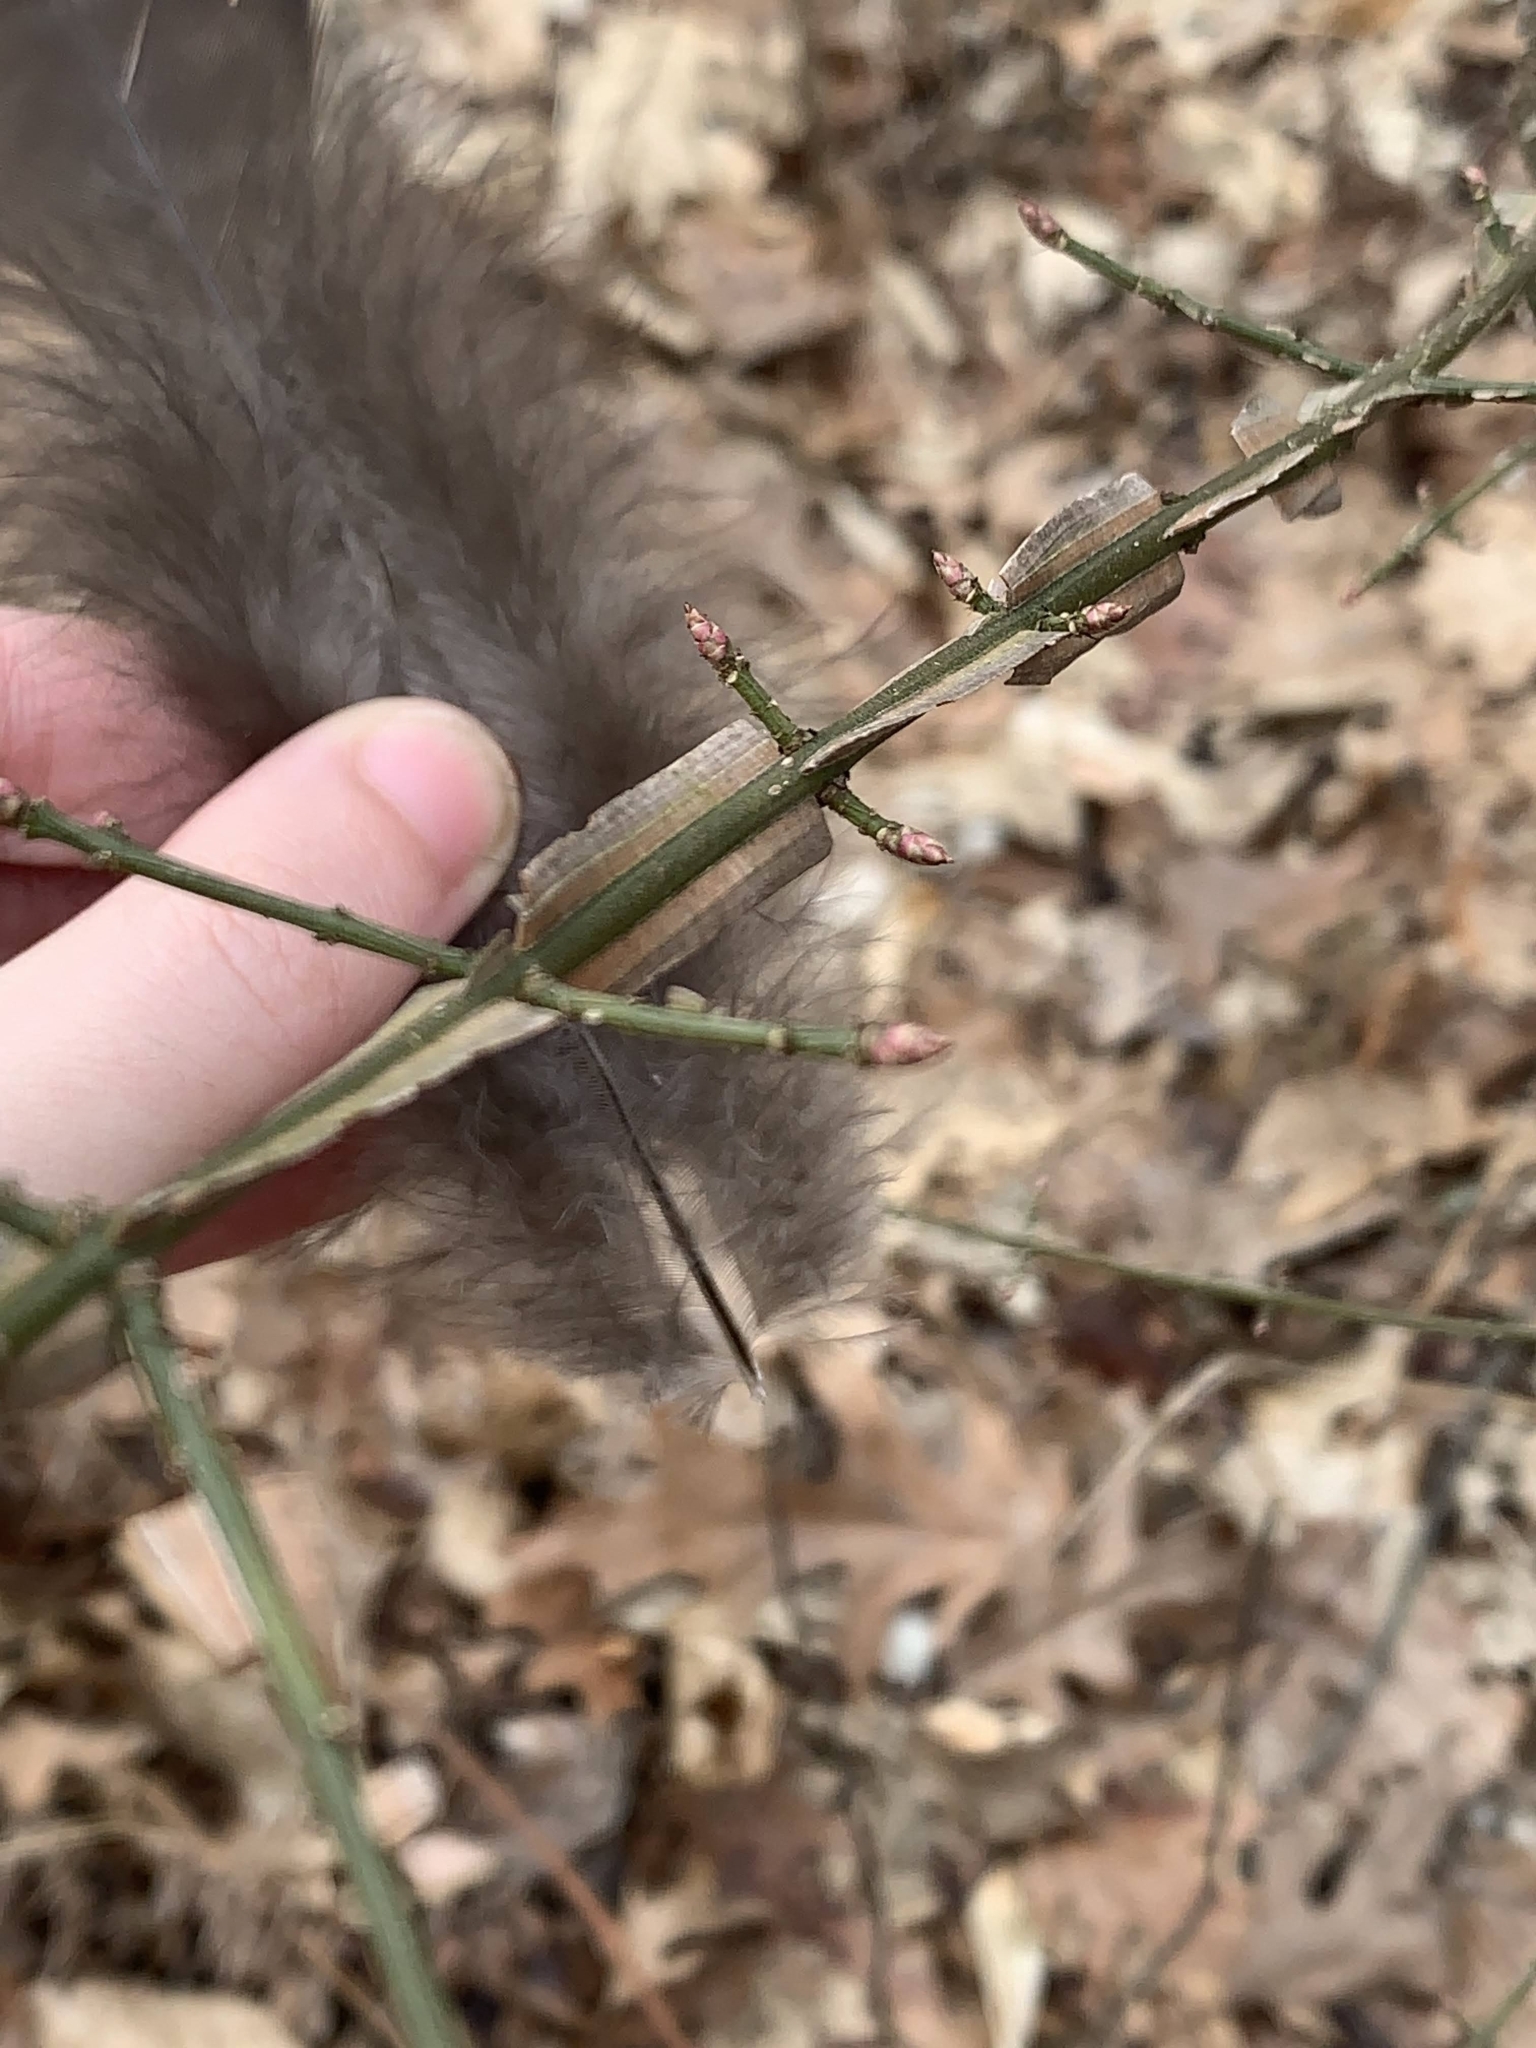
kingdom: Plantae
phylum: Tracheophyta
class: Magnoliopsida
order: Celastrales
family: Celastraceae
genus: Euonymus
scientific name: Euonymus alatus
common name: Winged euonymus
